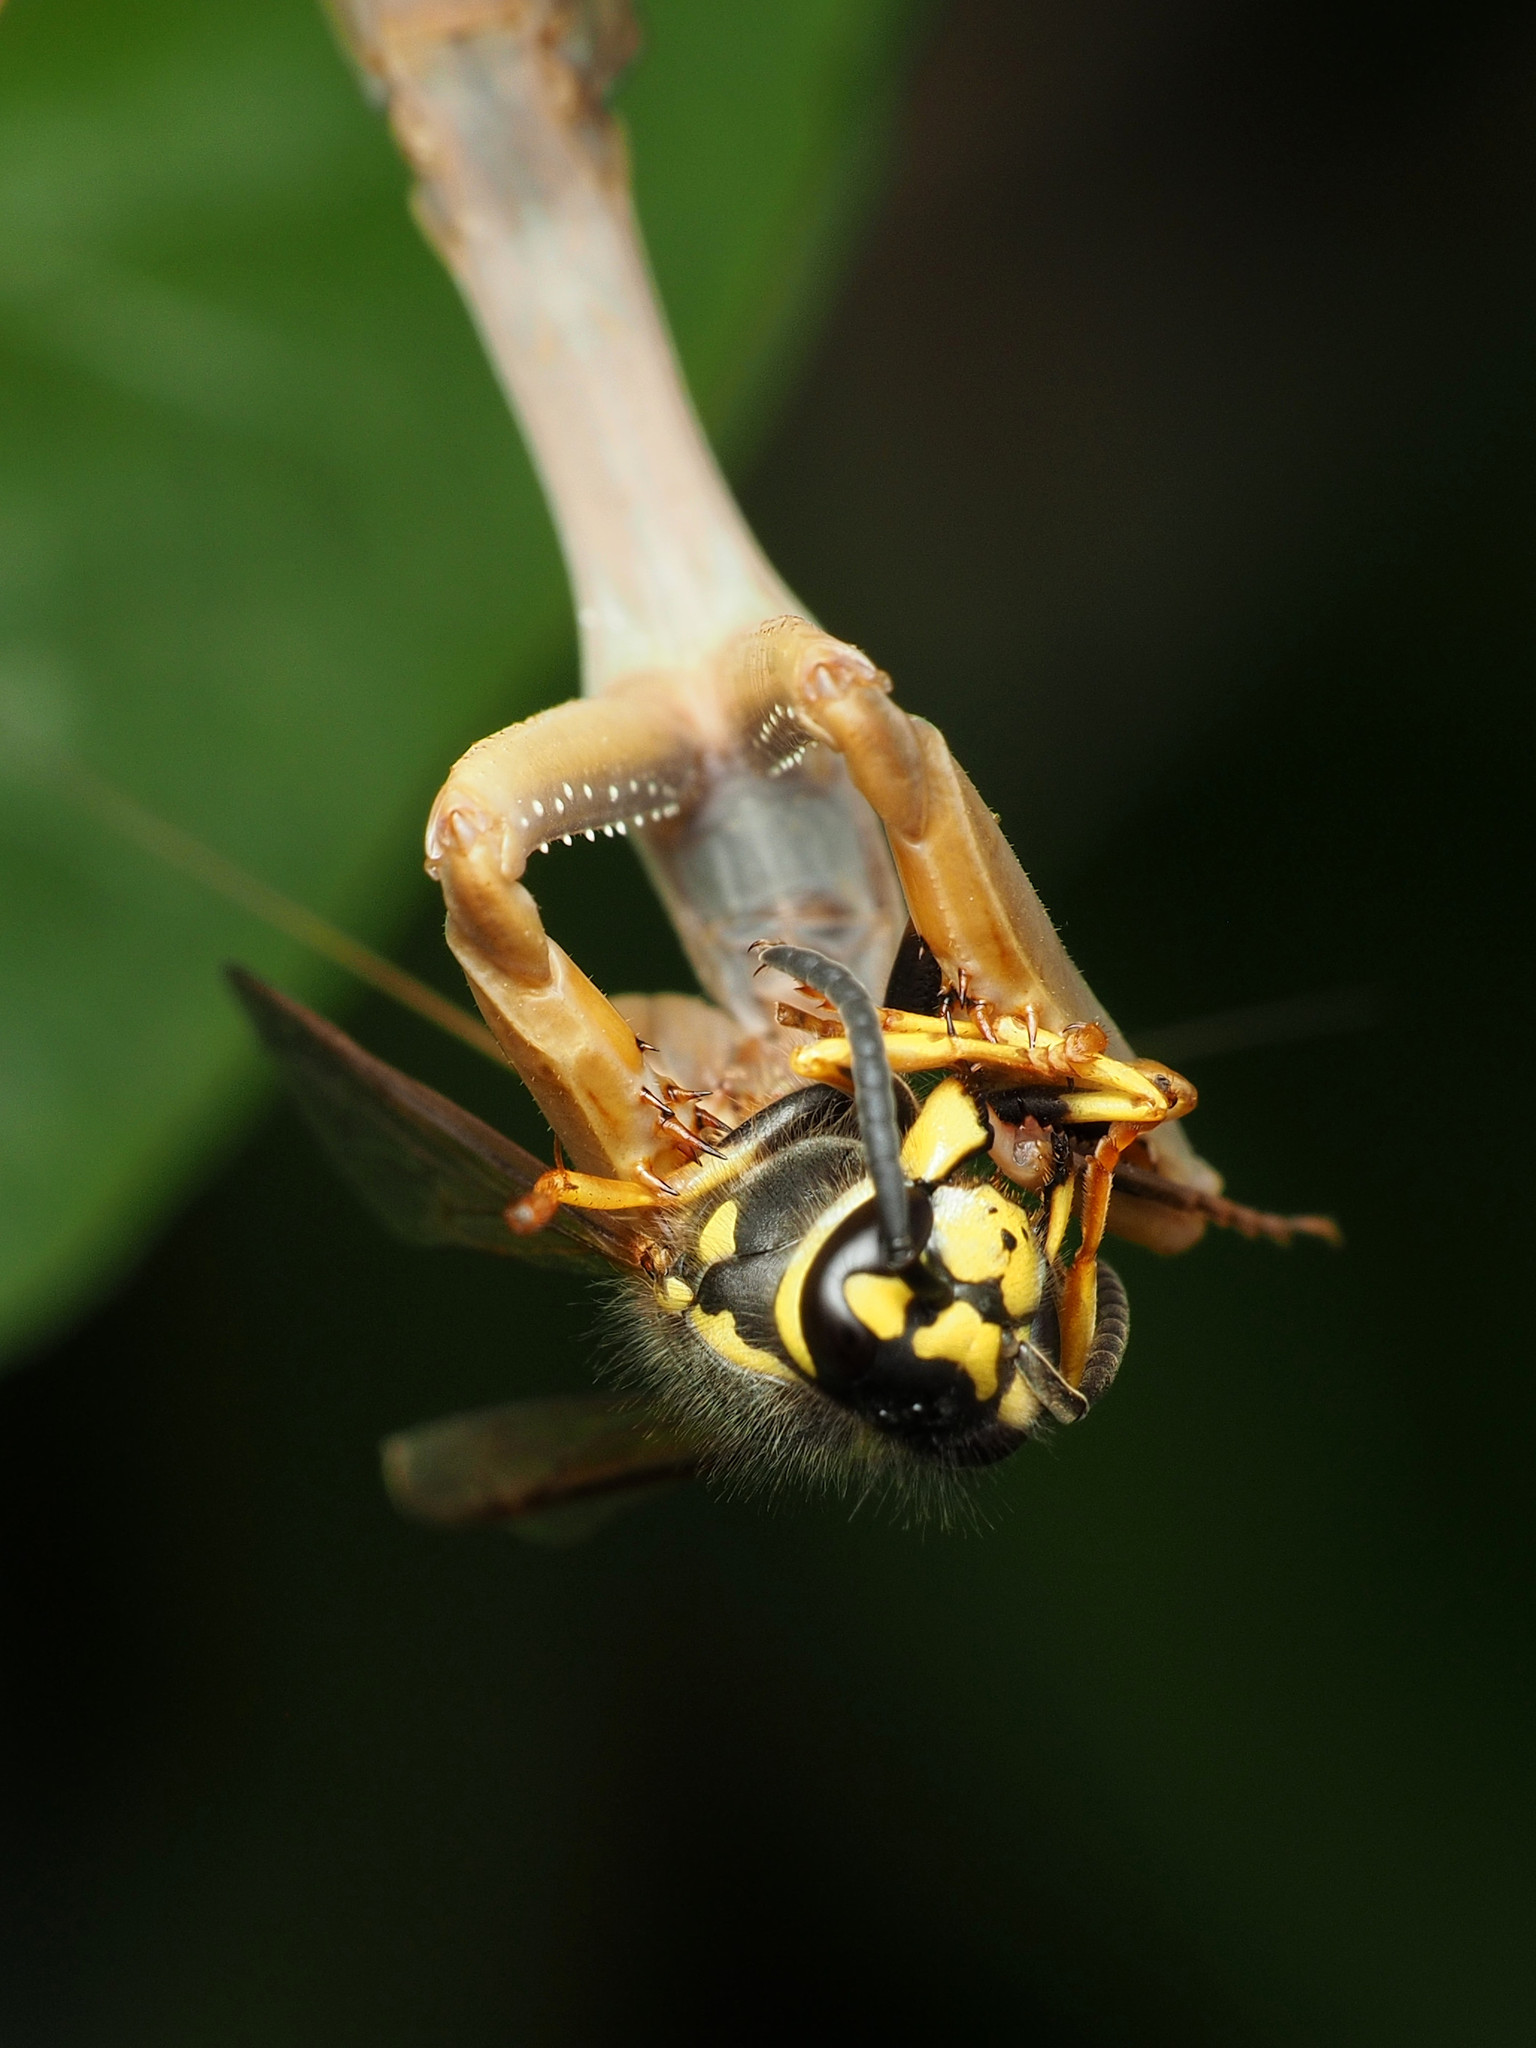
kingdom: Animalia
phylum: Arthropoda
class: Insecta
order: Mantodea
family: Eremiaphilidae
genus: Iris
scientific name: Iris oratoria
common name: Mediterranean mantis
